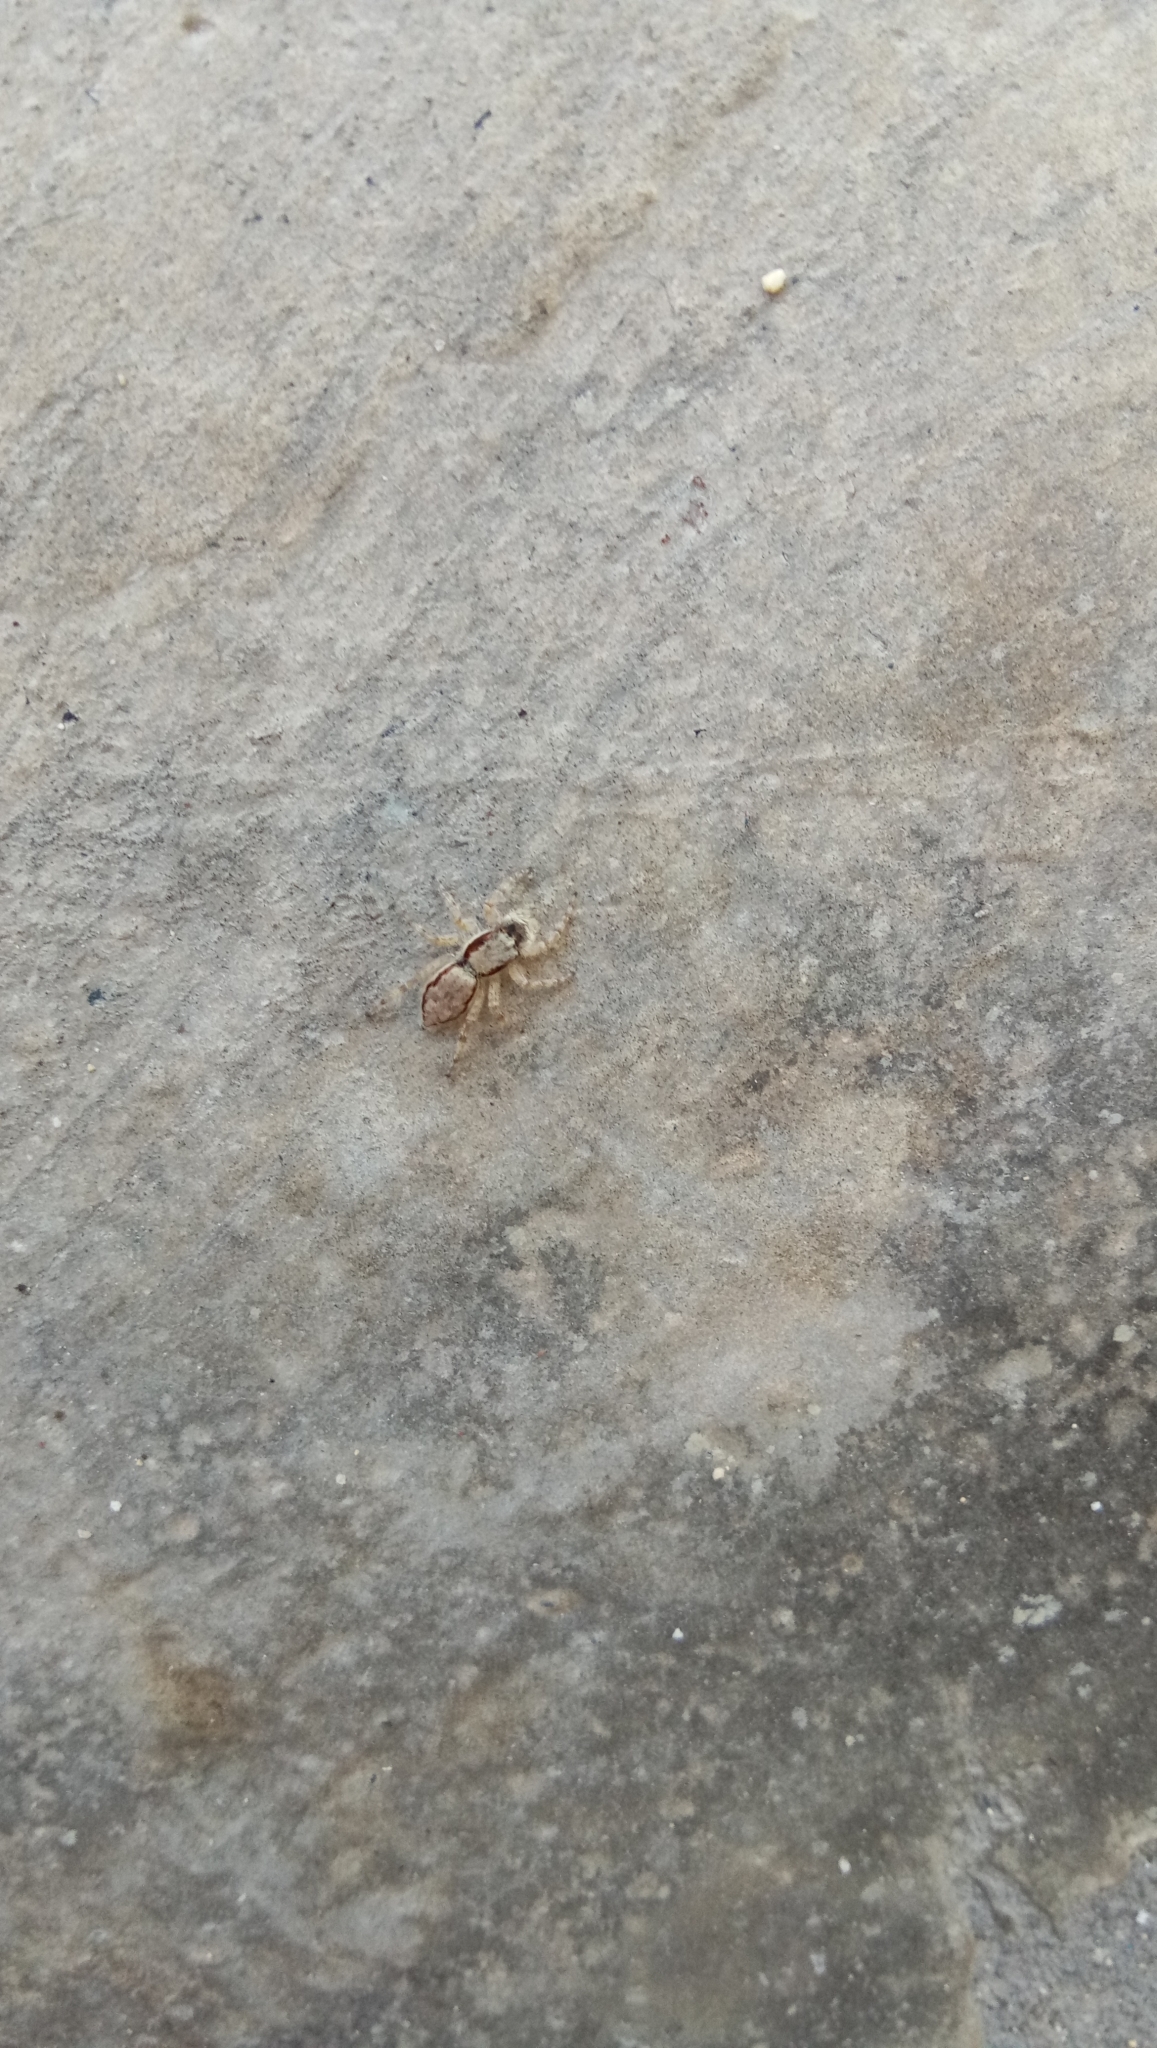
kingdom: Animalia
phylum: Arthropoda
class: Arachnida
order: Araneae
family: Salticidae
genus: Menemerus
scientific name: Menemerus bivittatus
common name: Gray wall jumper
